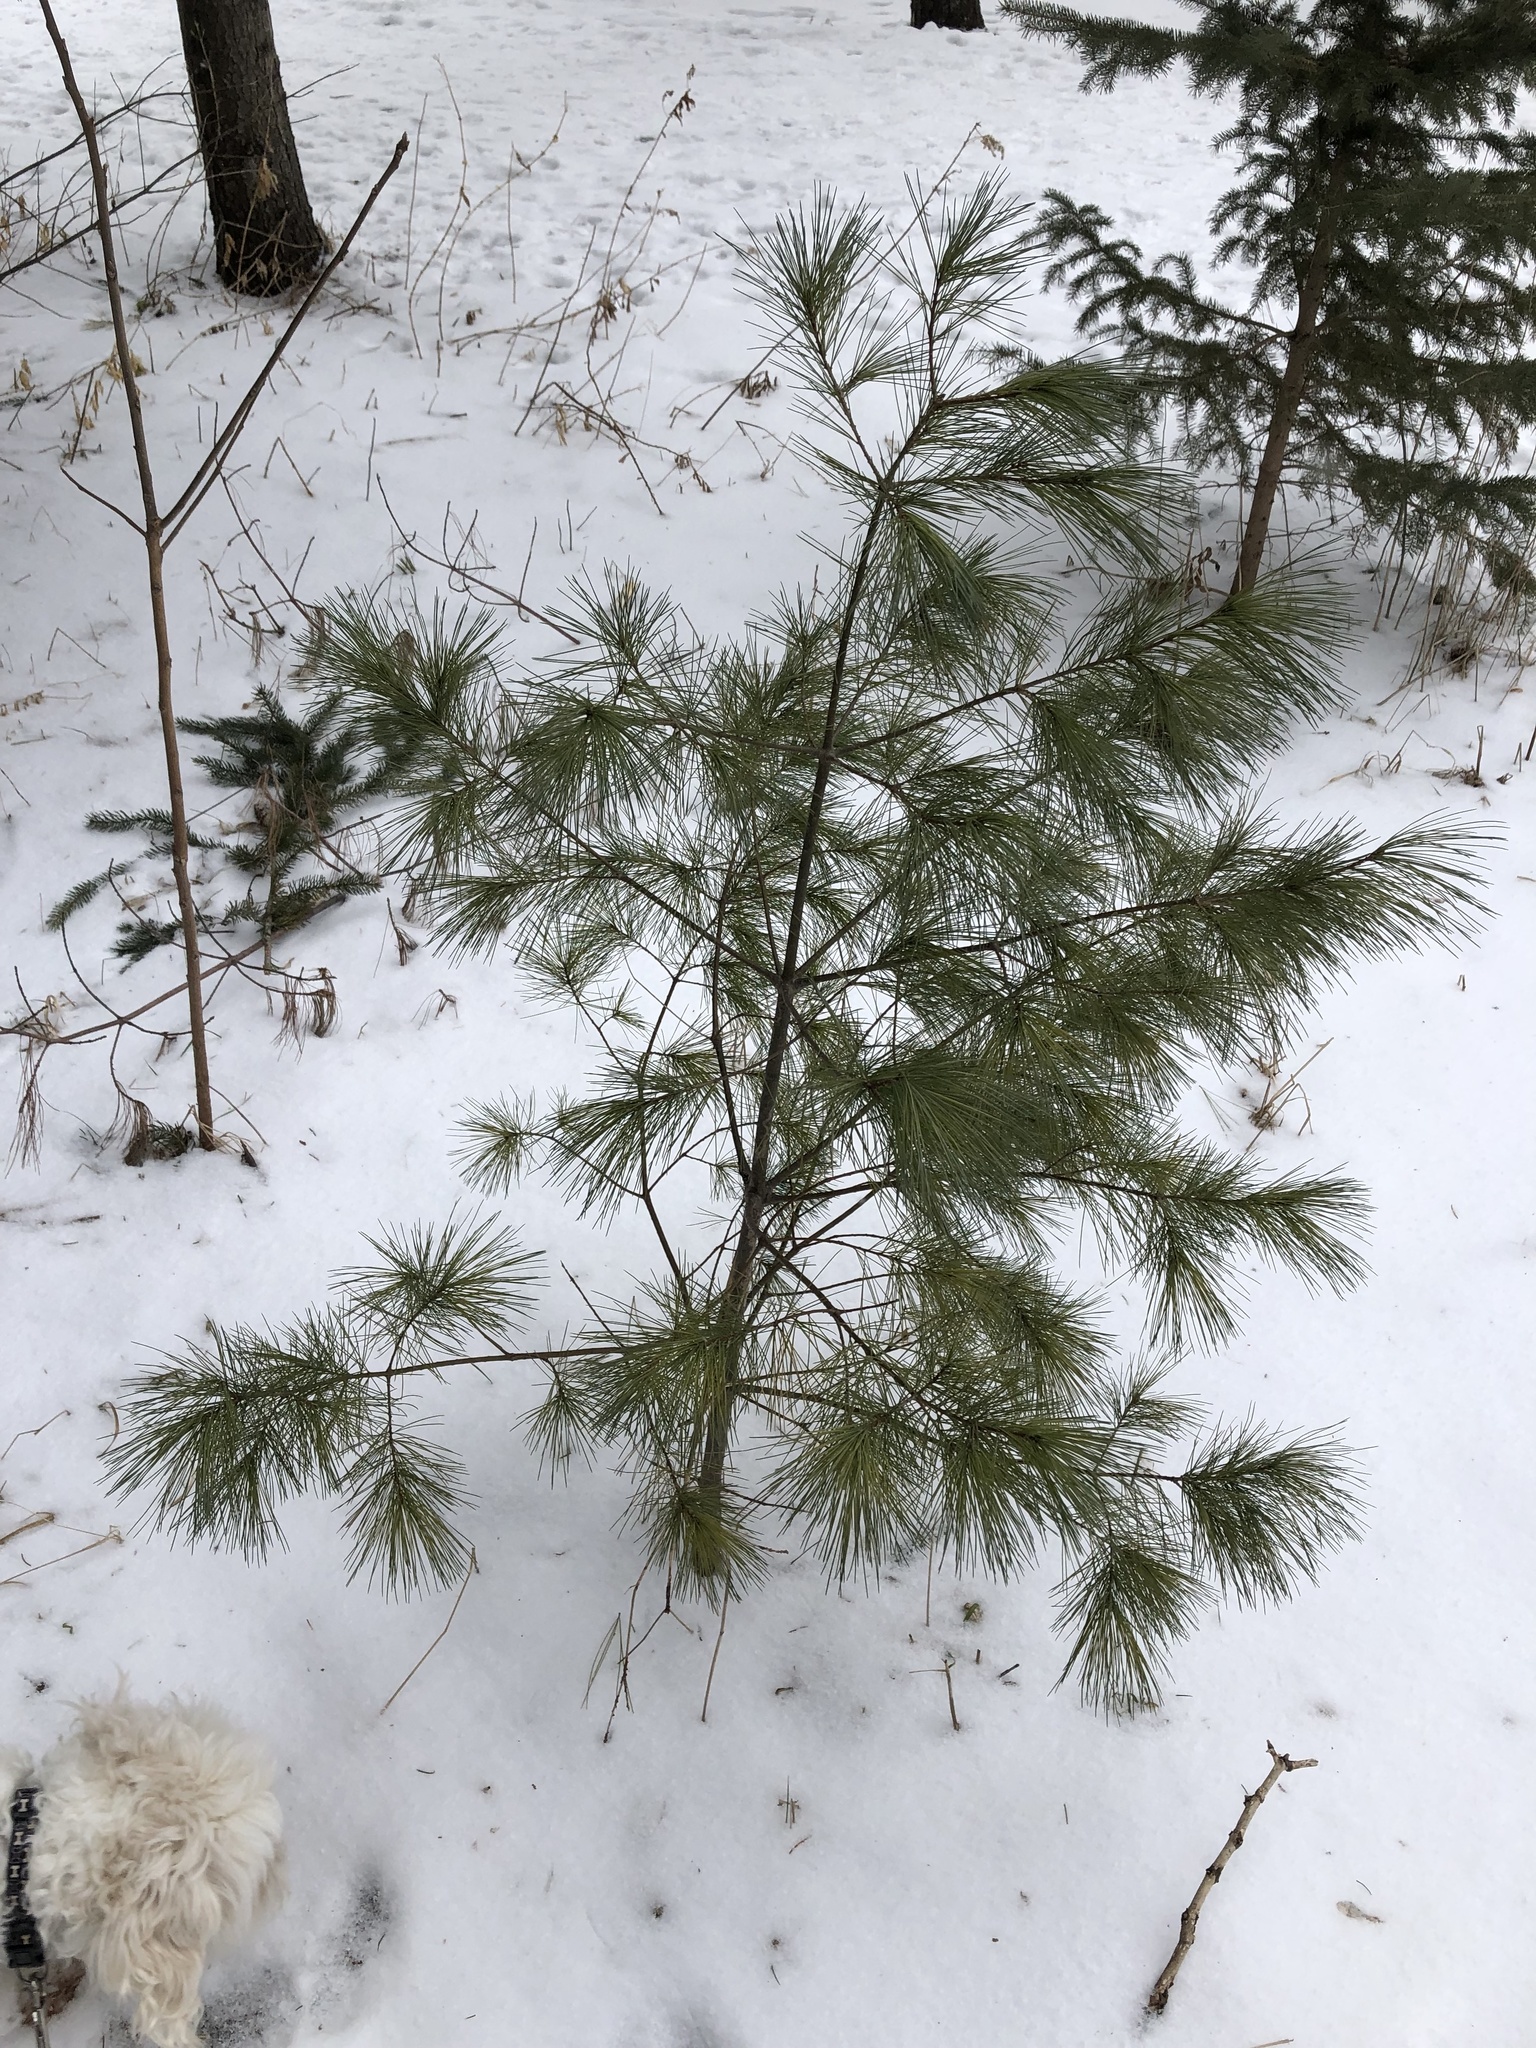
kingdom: Plantae
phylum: Tracheophyta
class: Pinopsida
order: Pinales
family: Pinaceae
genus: Pinus
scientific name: Pinus strobus
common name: Weymouth pine
